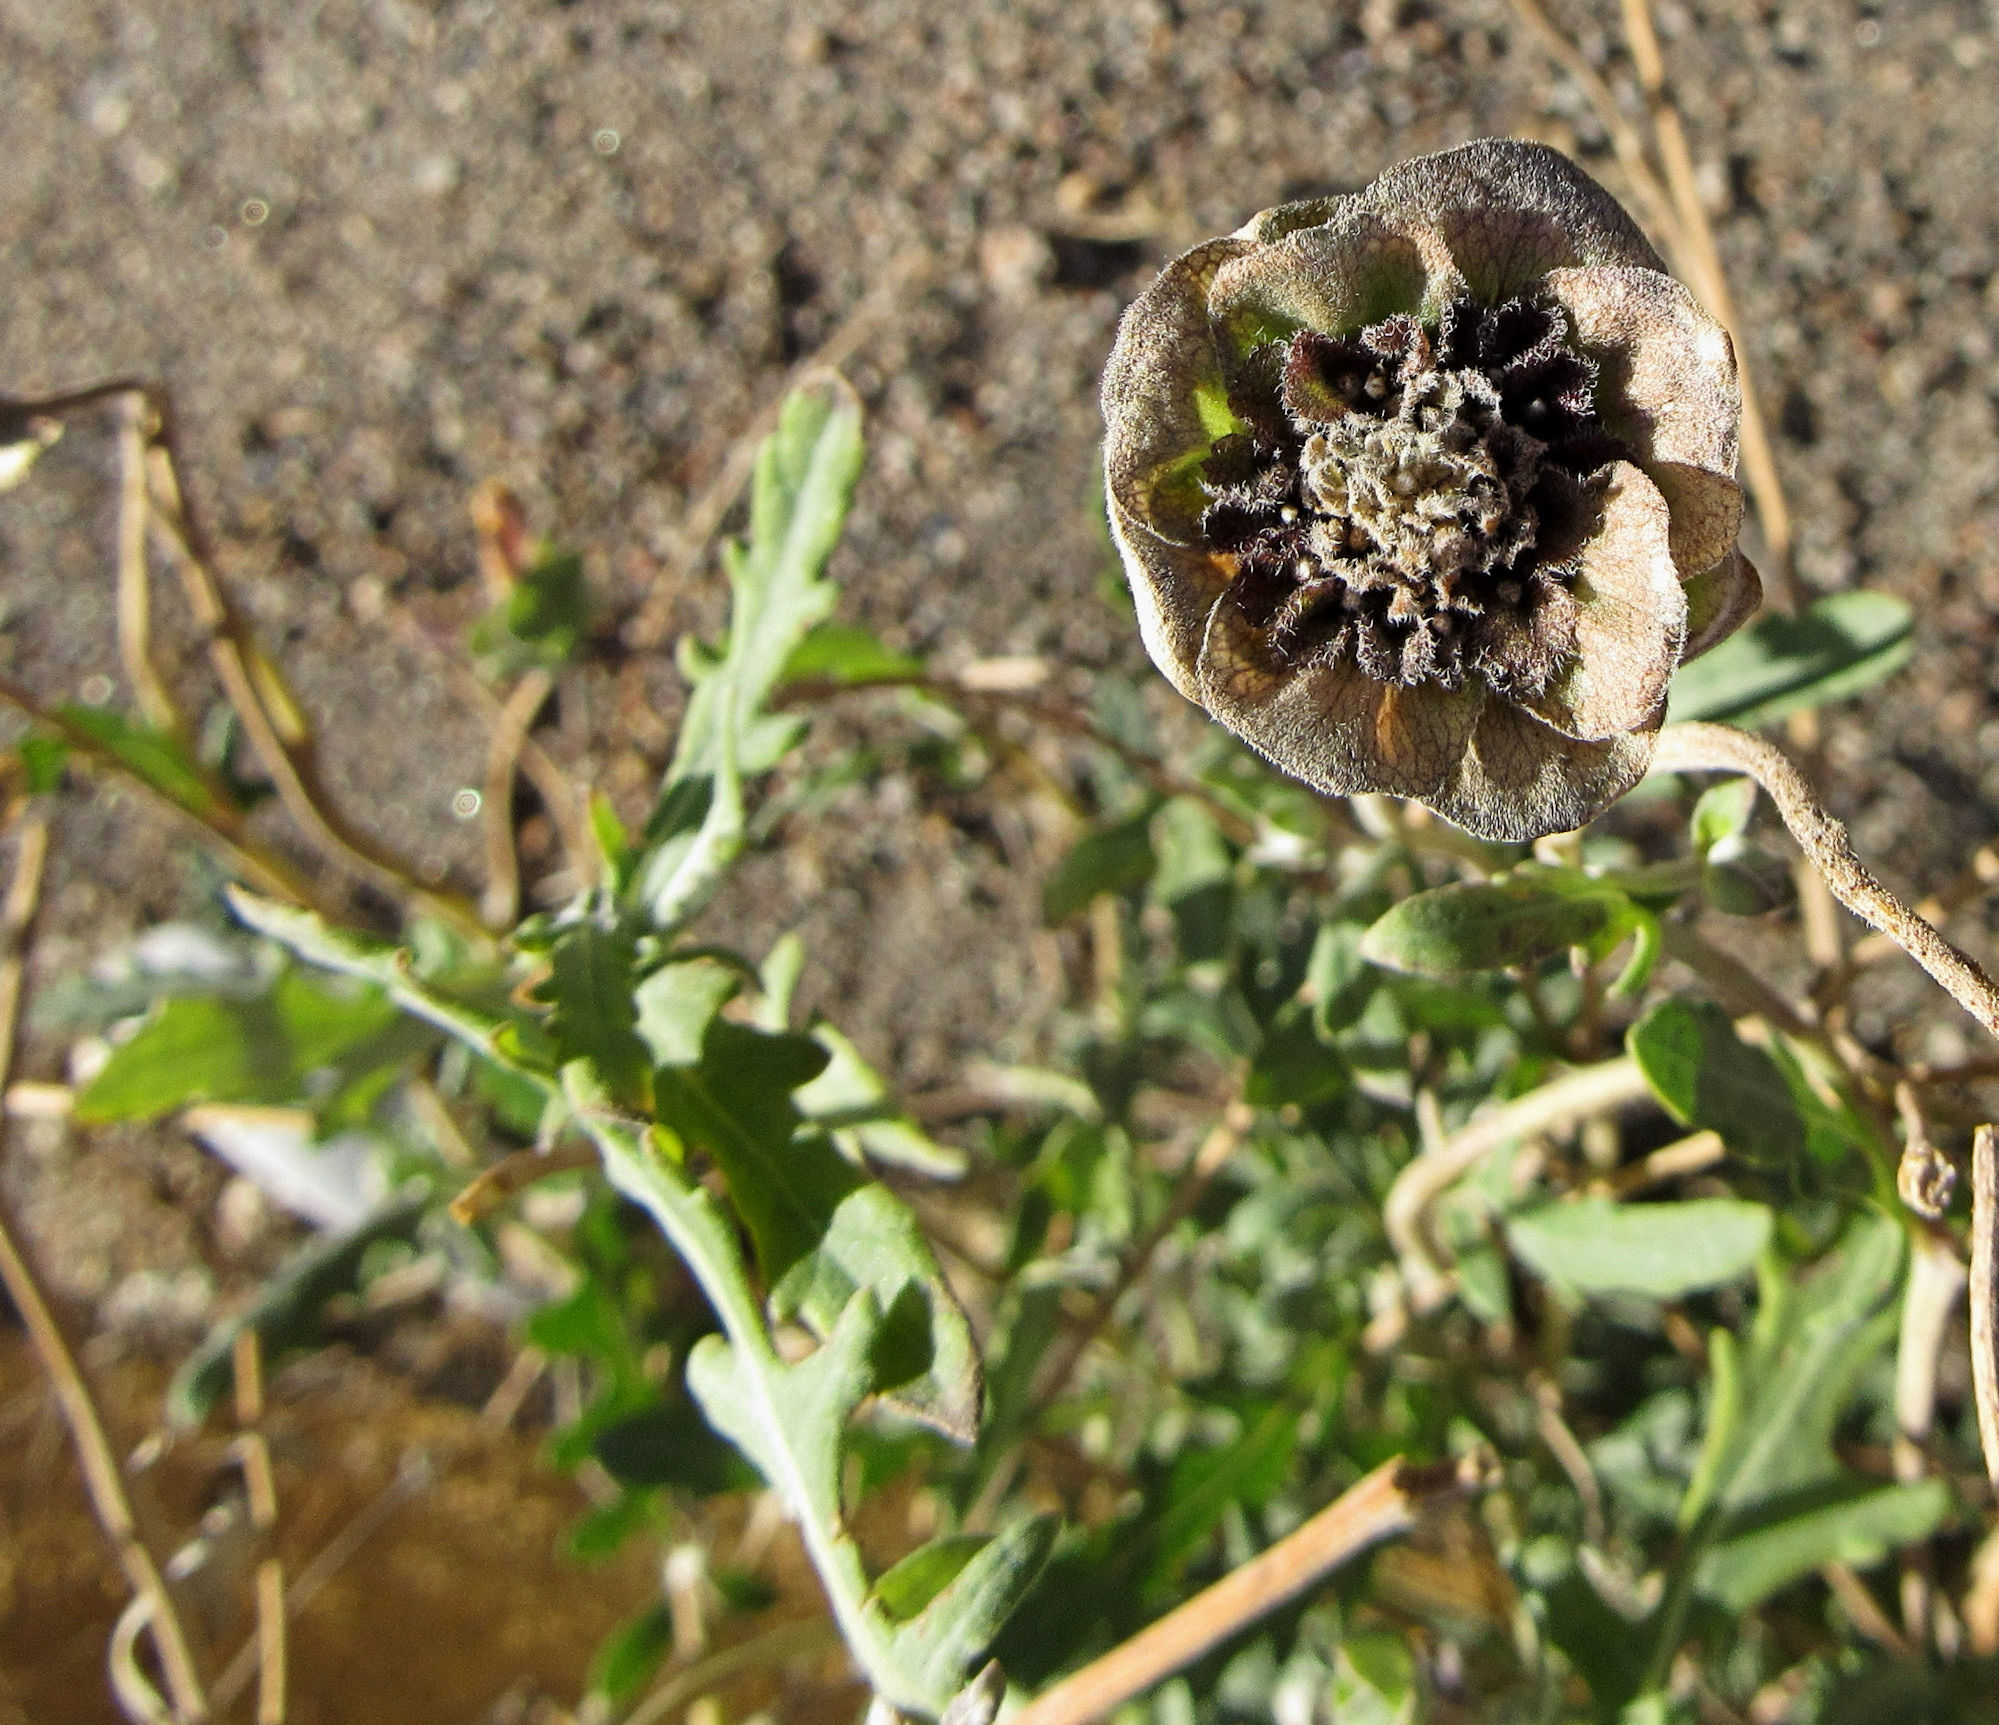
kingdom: Plantae
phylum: Tracheophyta
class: Magnoliopsida
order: Asterales
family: Asteraceae
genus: Berlandiera
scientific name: Berlandiera lyrata
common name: Chocolate-flower
